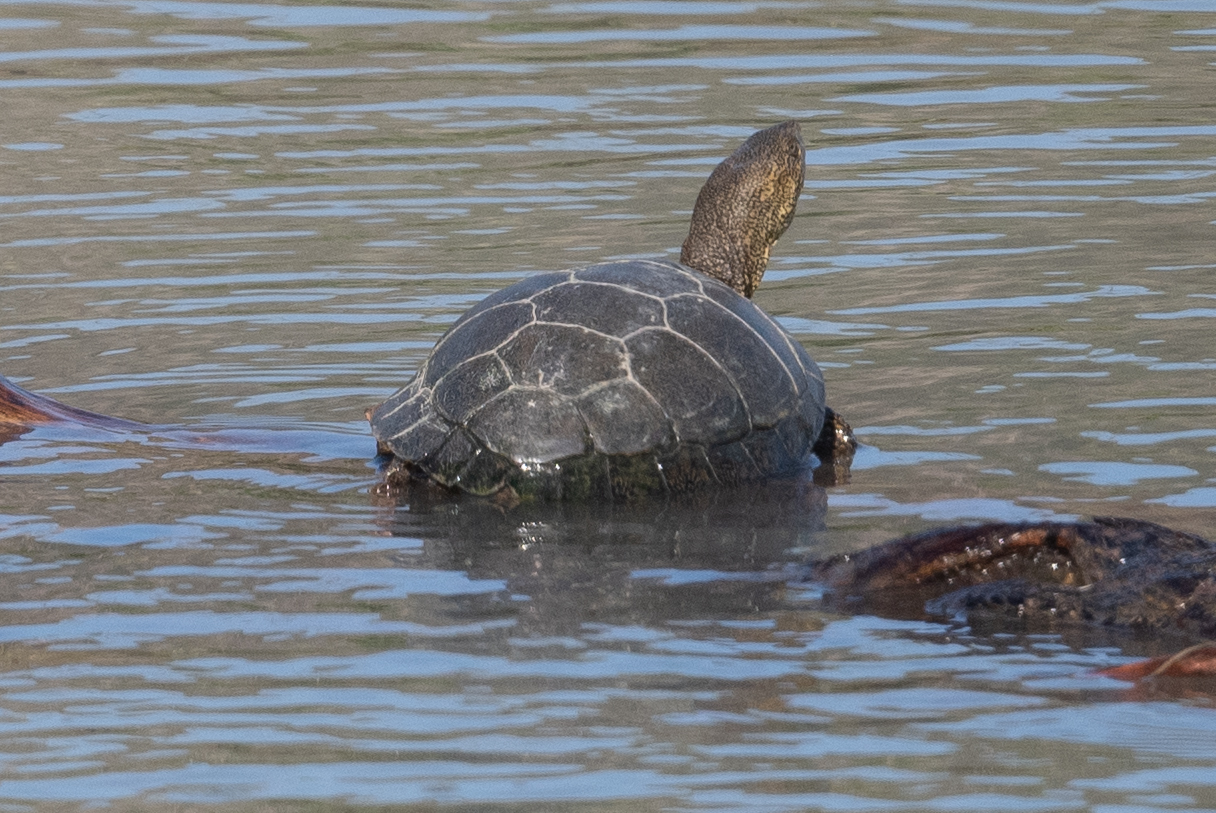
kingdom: Animalia
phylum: Chordata
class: Testudines
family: Emydidae
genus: Actinemys
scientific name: Actinemys marmorata
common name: Western pond turtle
